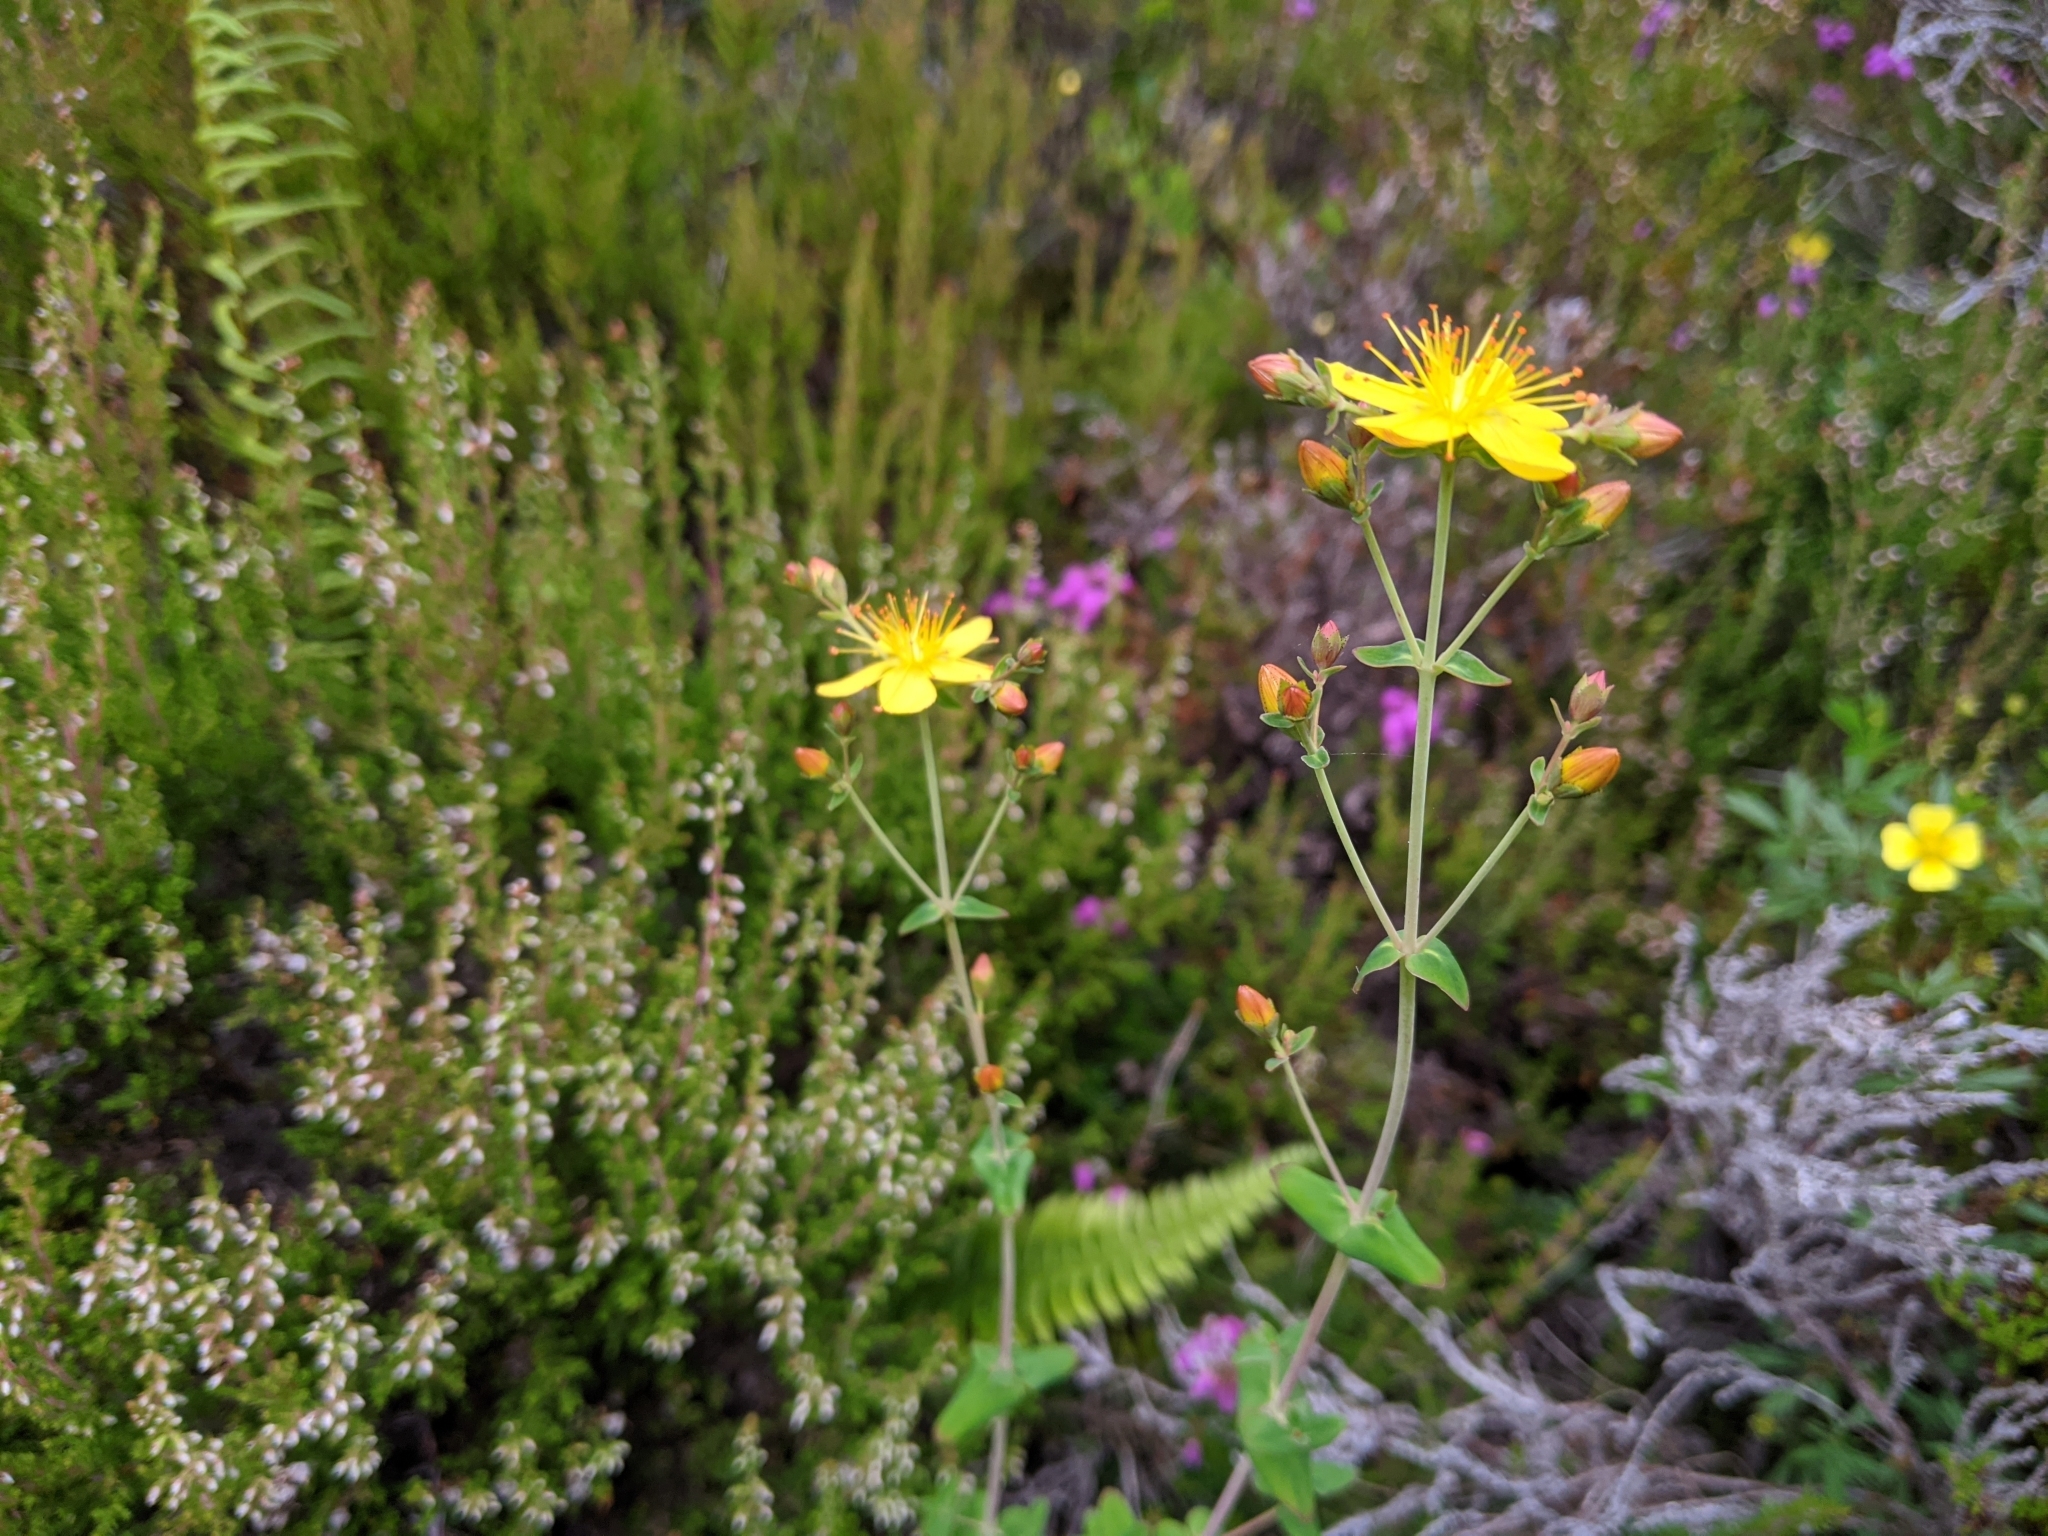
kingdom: Plantae
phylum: Tracheophyta
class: Magnoliopsida
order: Malpighiales
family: Hypericaceae
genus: Hypericum
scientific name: Hypericum pulchrum
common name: Slender st. john's-wort
